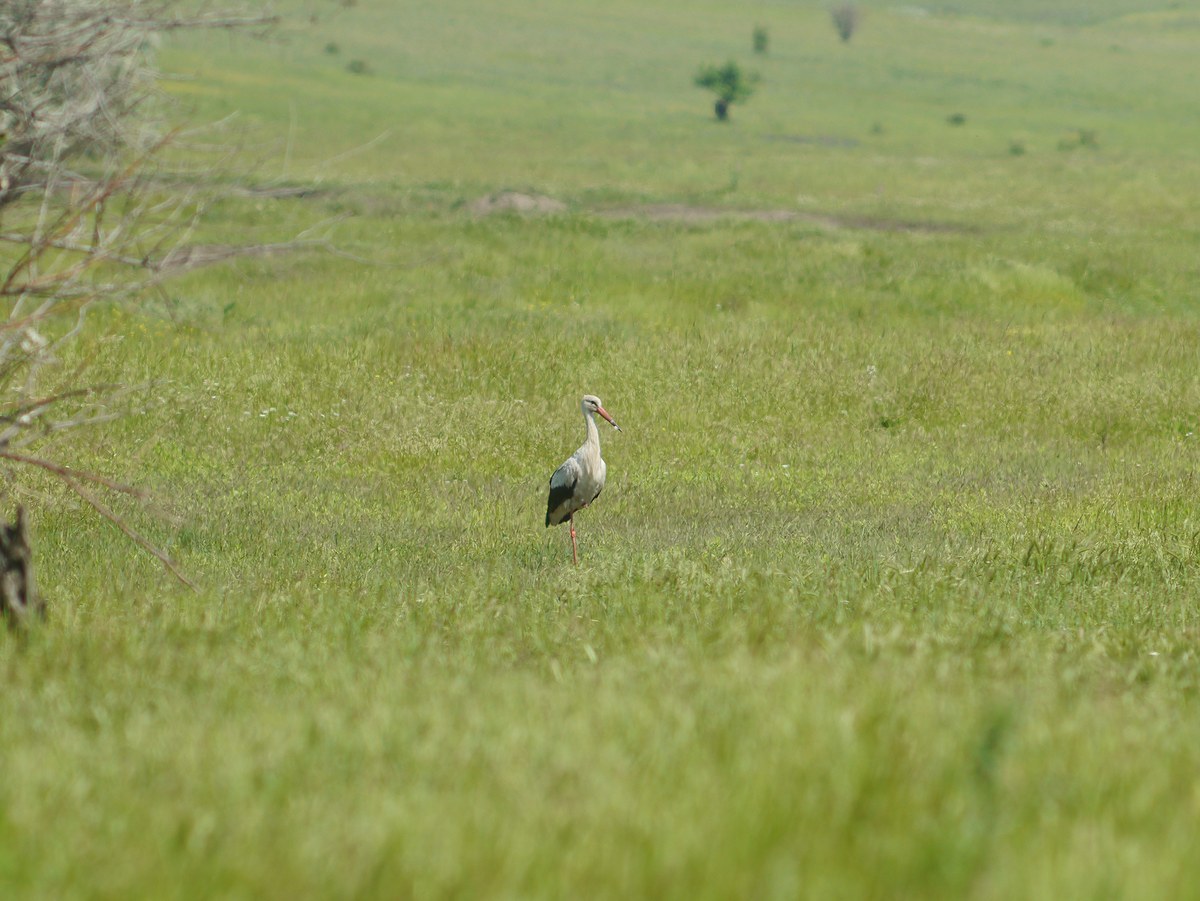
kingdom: Animalia
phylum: Chordata
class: Aves
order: Ciconiiformes
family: Ciconiidae
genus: Ciconia
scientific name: Ciconia ciconia
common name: White stork
